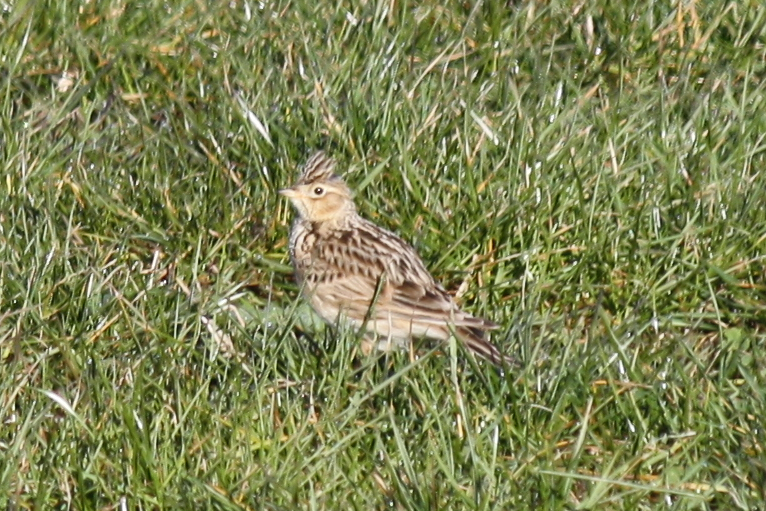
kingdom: Animalia
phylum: Chordata
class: Aves
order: Passeriformes
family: Alaudidae
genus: Alauda
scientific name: Alauda arvensis
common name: Eurasian skylark
